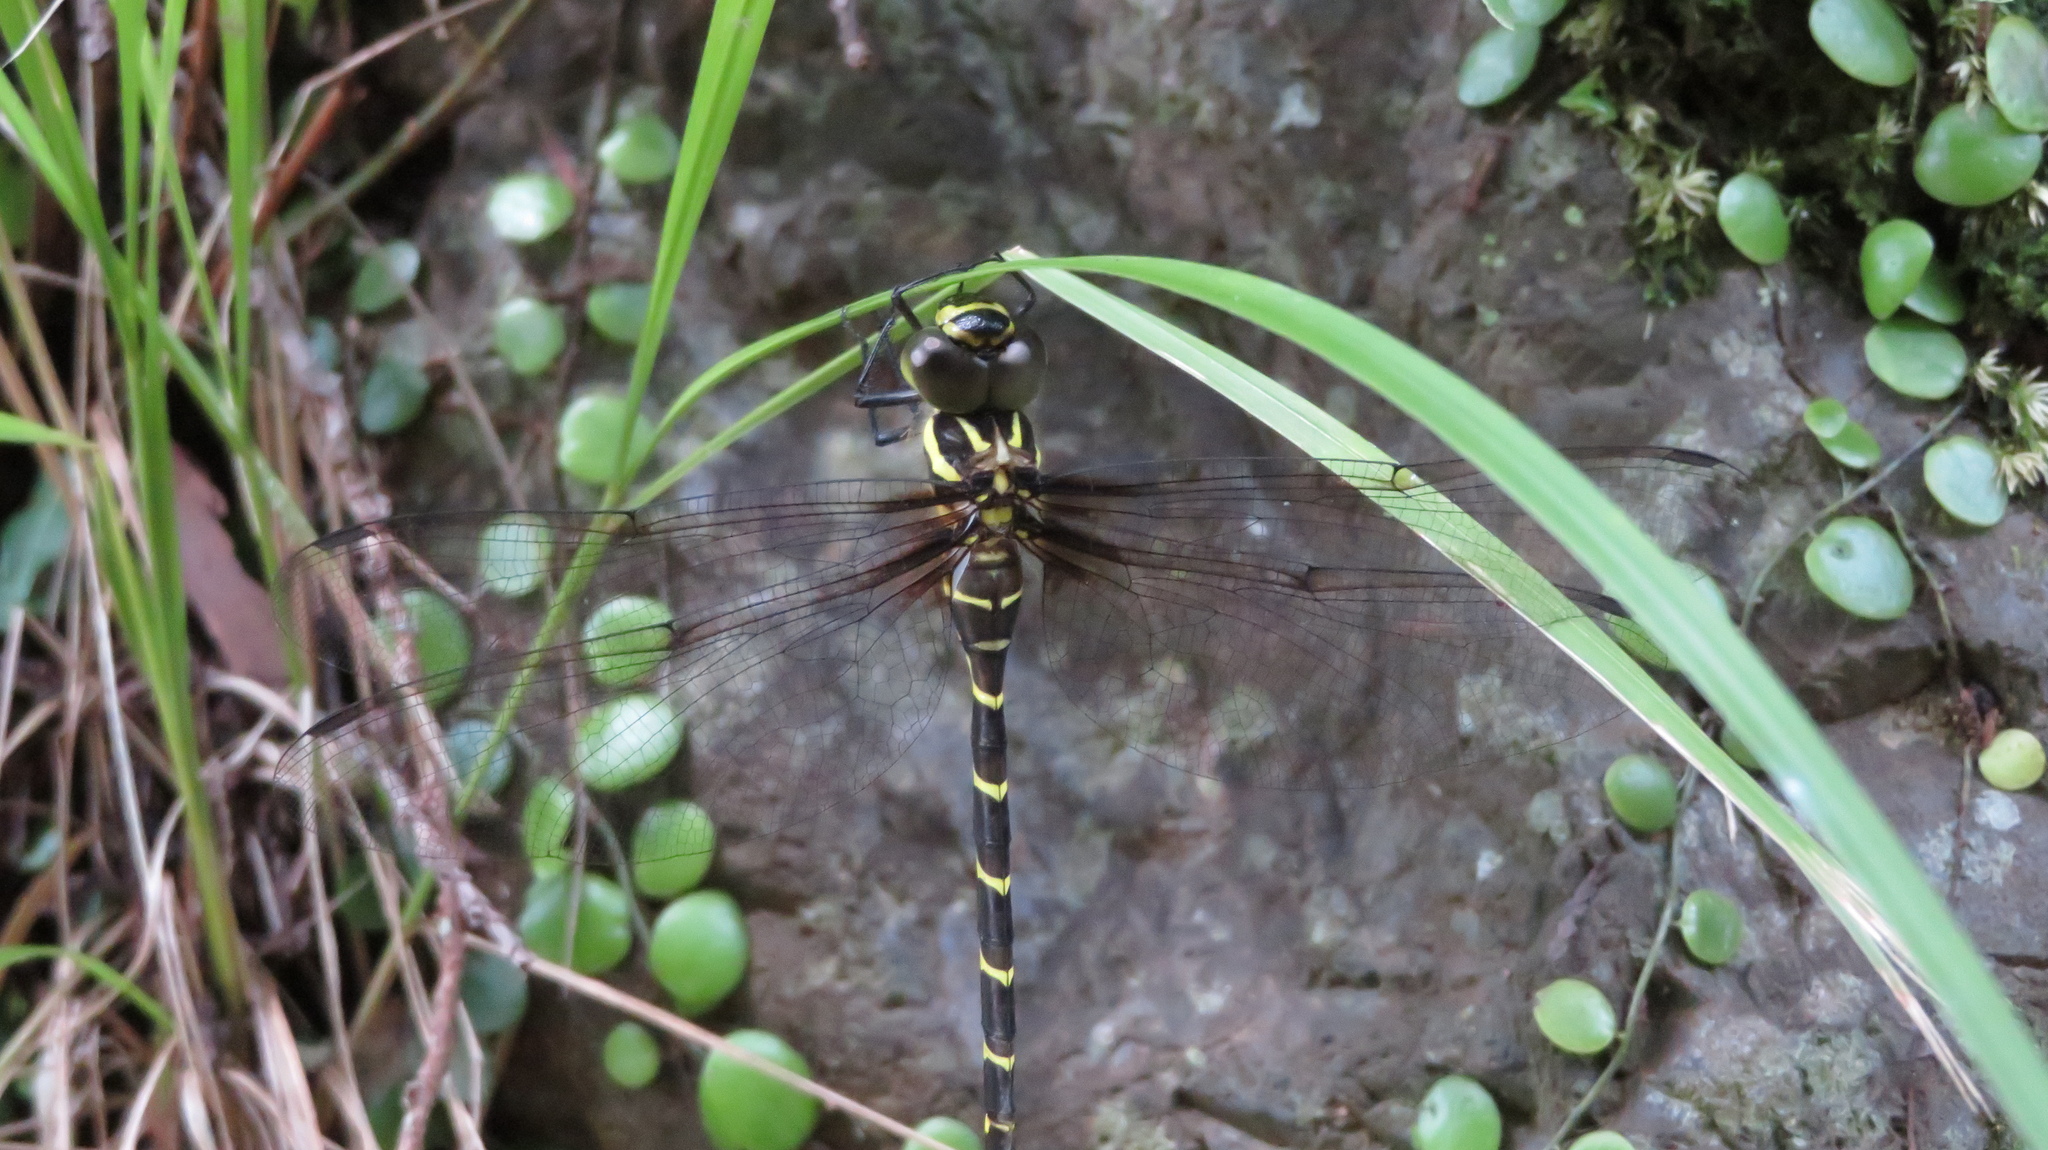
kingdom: Animalia
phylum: Arthropoda
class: Insecta
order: Odonata
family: Aeshnidae
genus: Aeschnophlebia
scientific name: Aeschnophlebia
